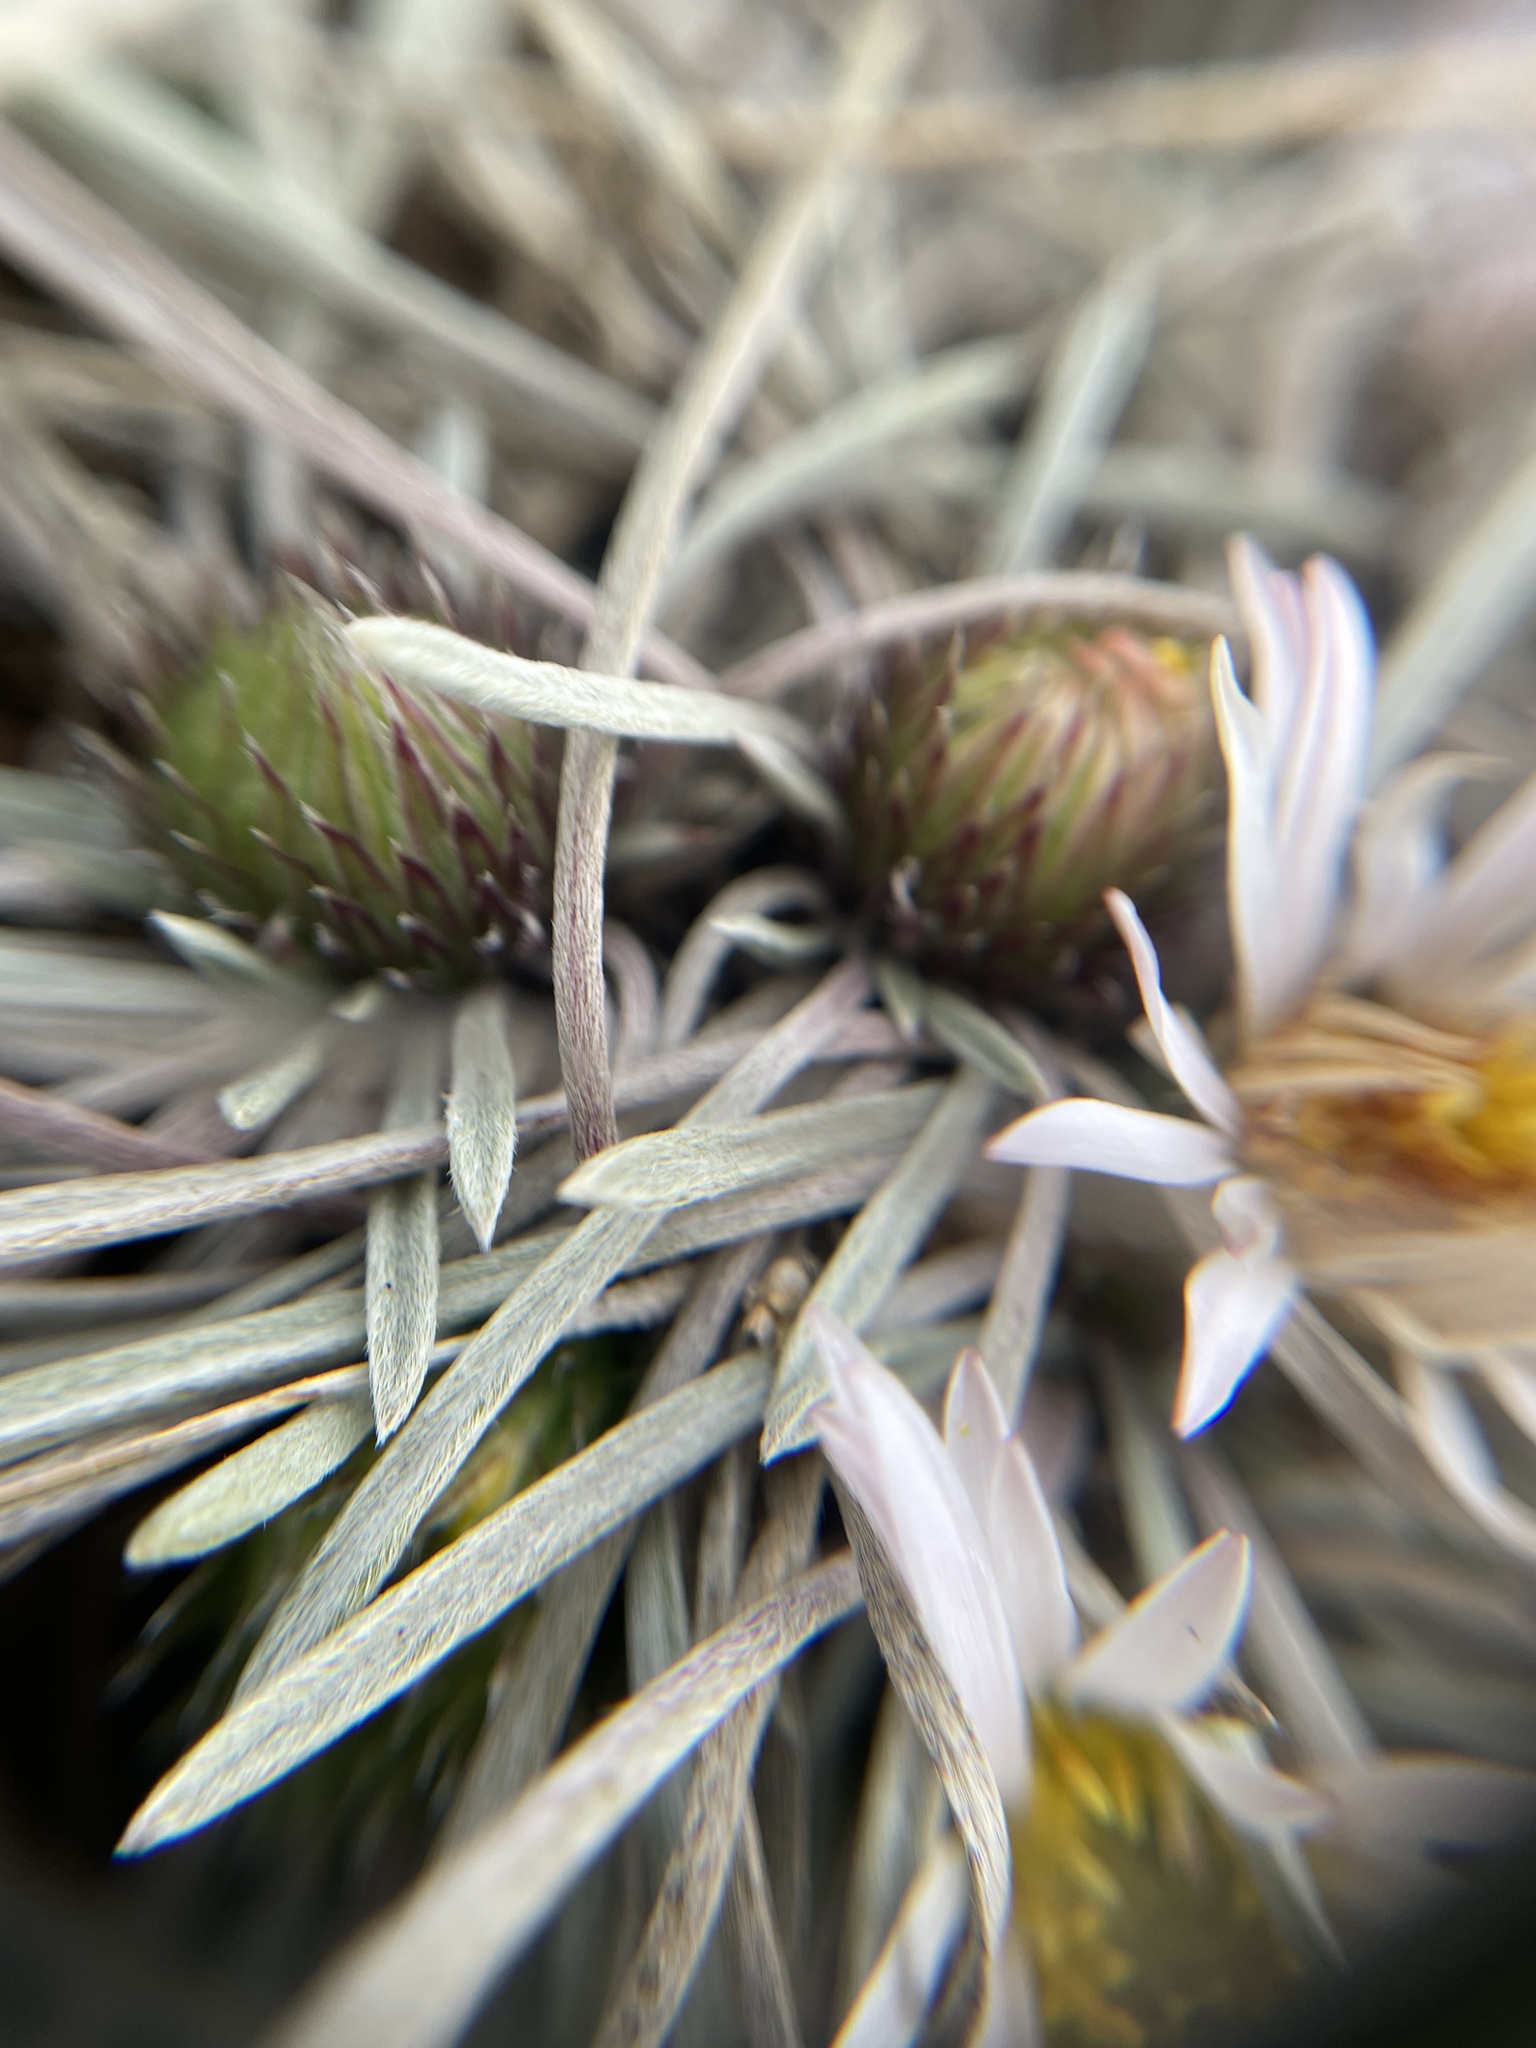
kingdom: Plantae
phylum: Tracheophyta
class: Magnoliopsida
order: Asterales
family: Asteraceae
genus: Townsendia
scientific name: Townsendia hookeri
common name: Hooker's townsend daisy
